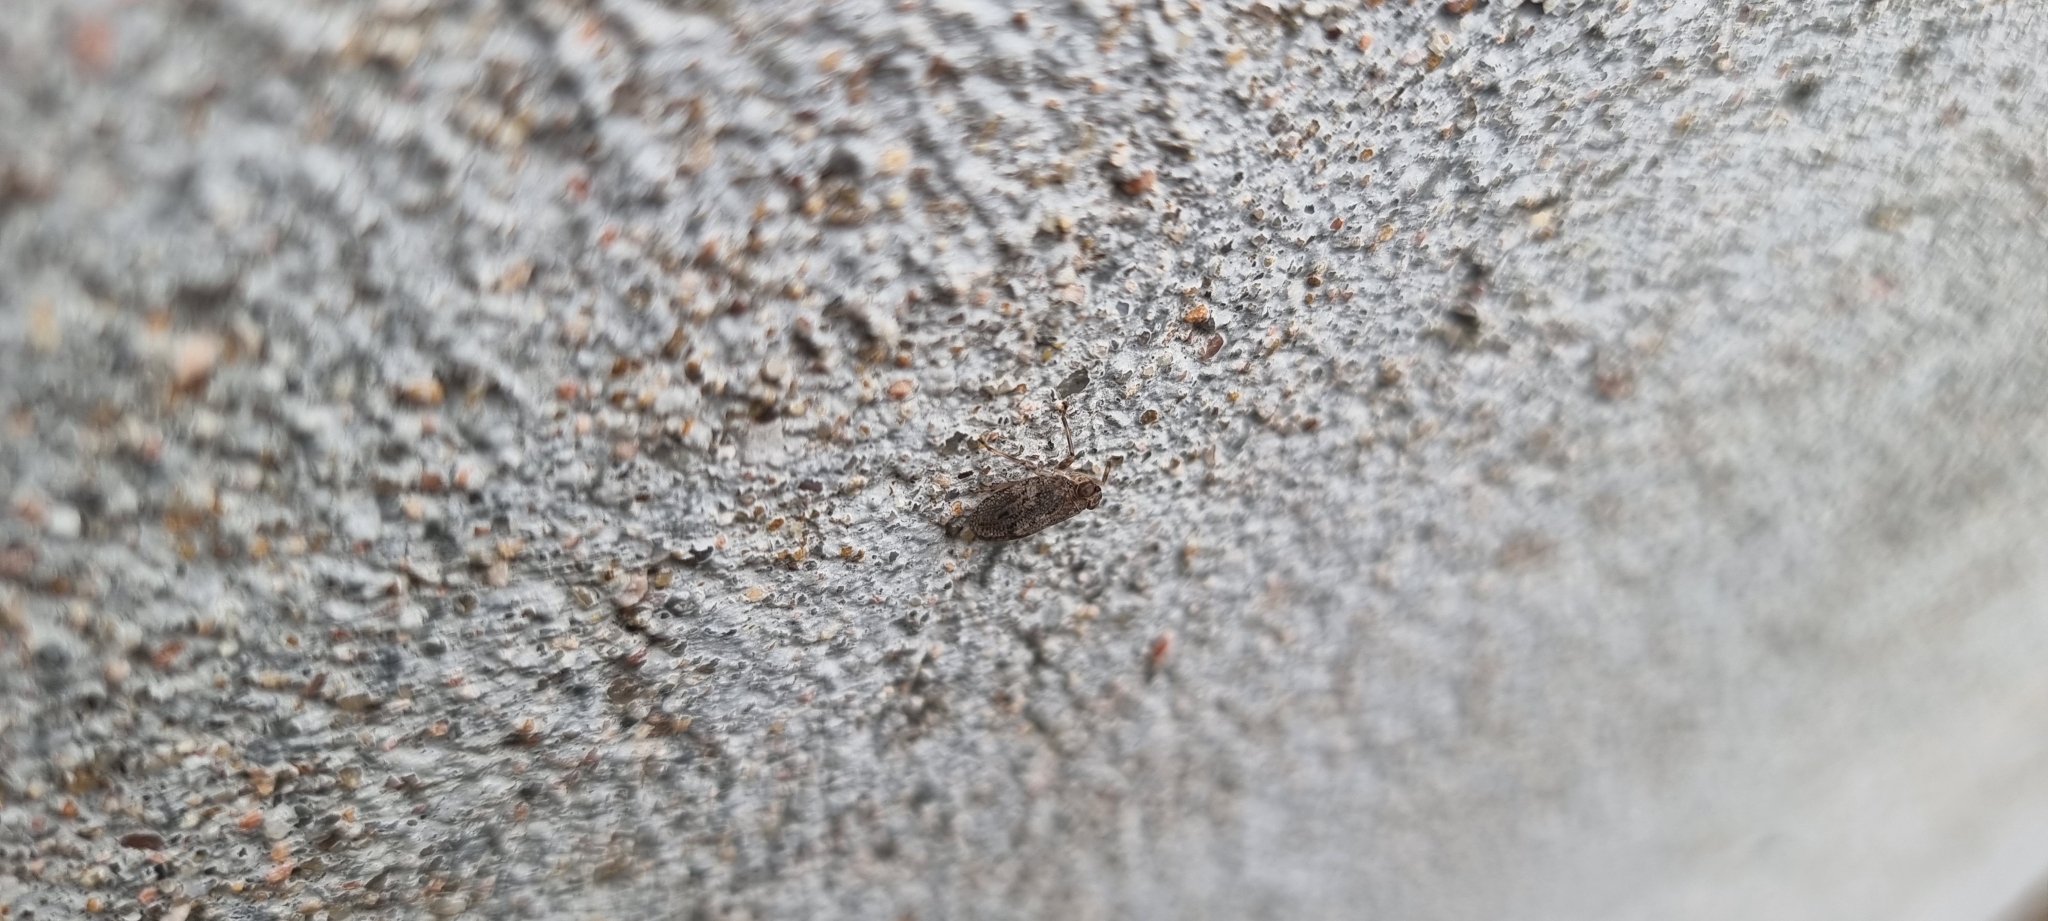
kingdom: Animalia
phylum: Arthropoda
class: Insecta
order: Hemiptera
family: Issidae
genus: Issus
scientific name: Issus coleoptratus
